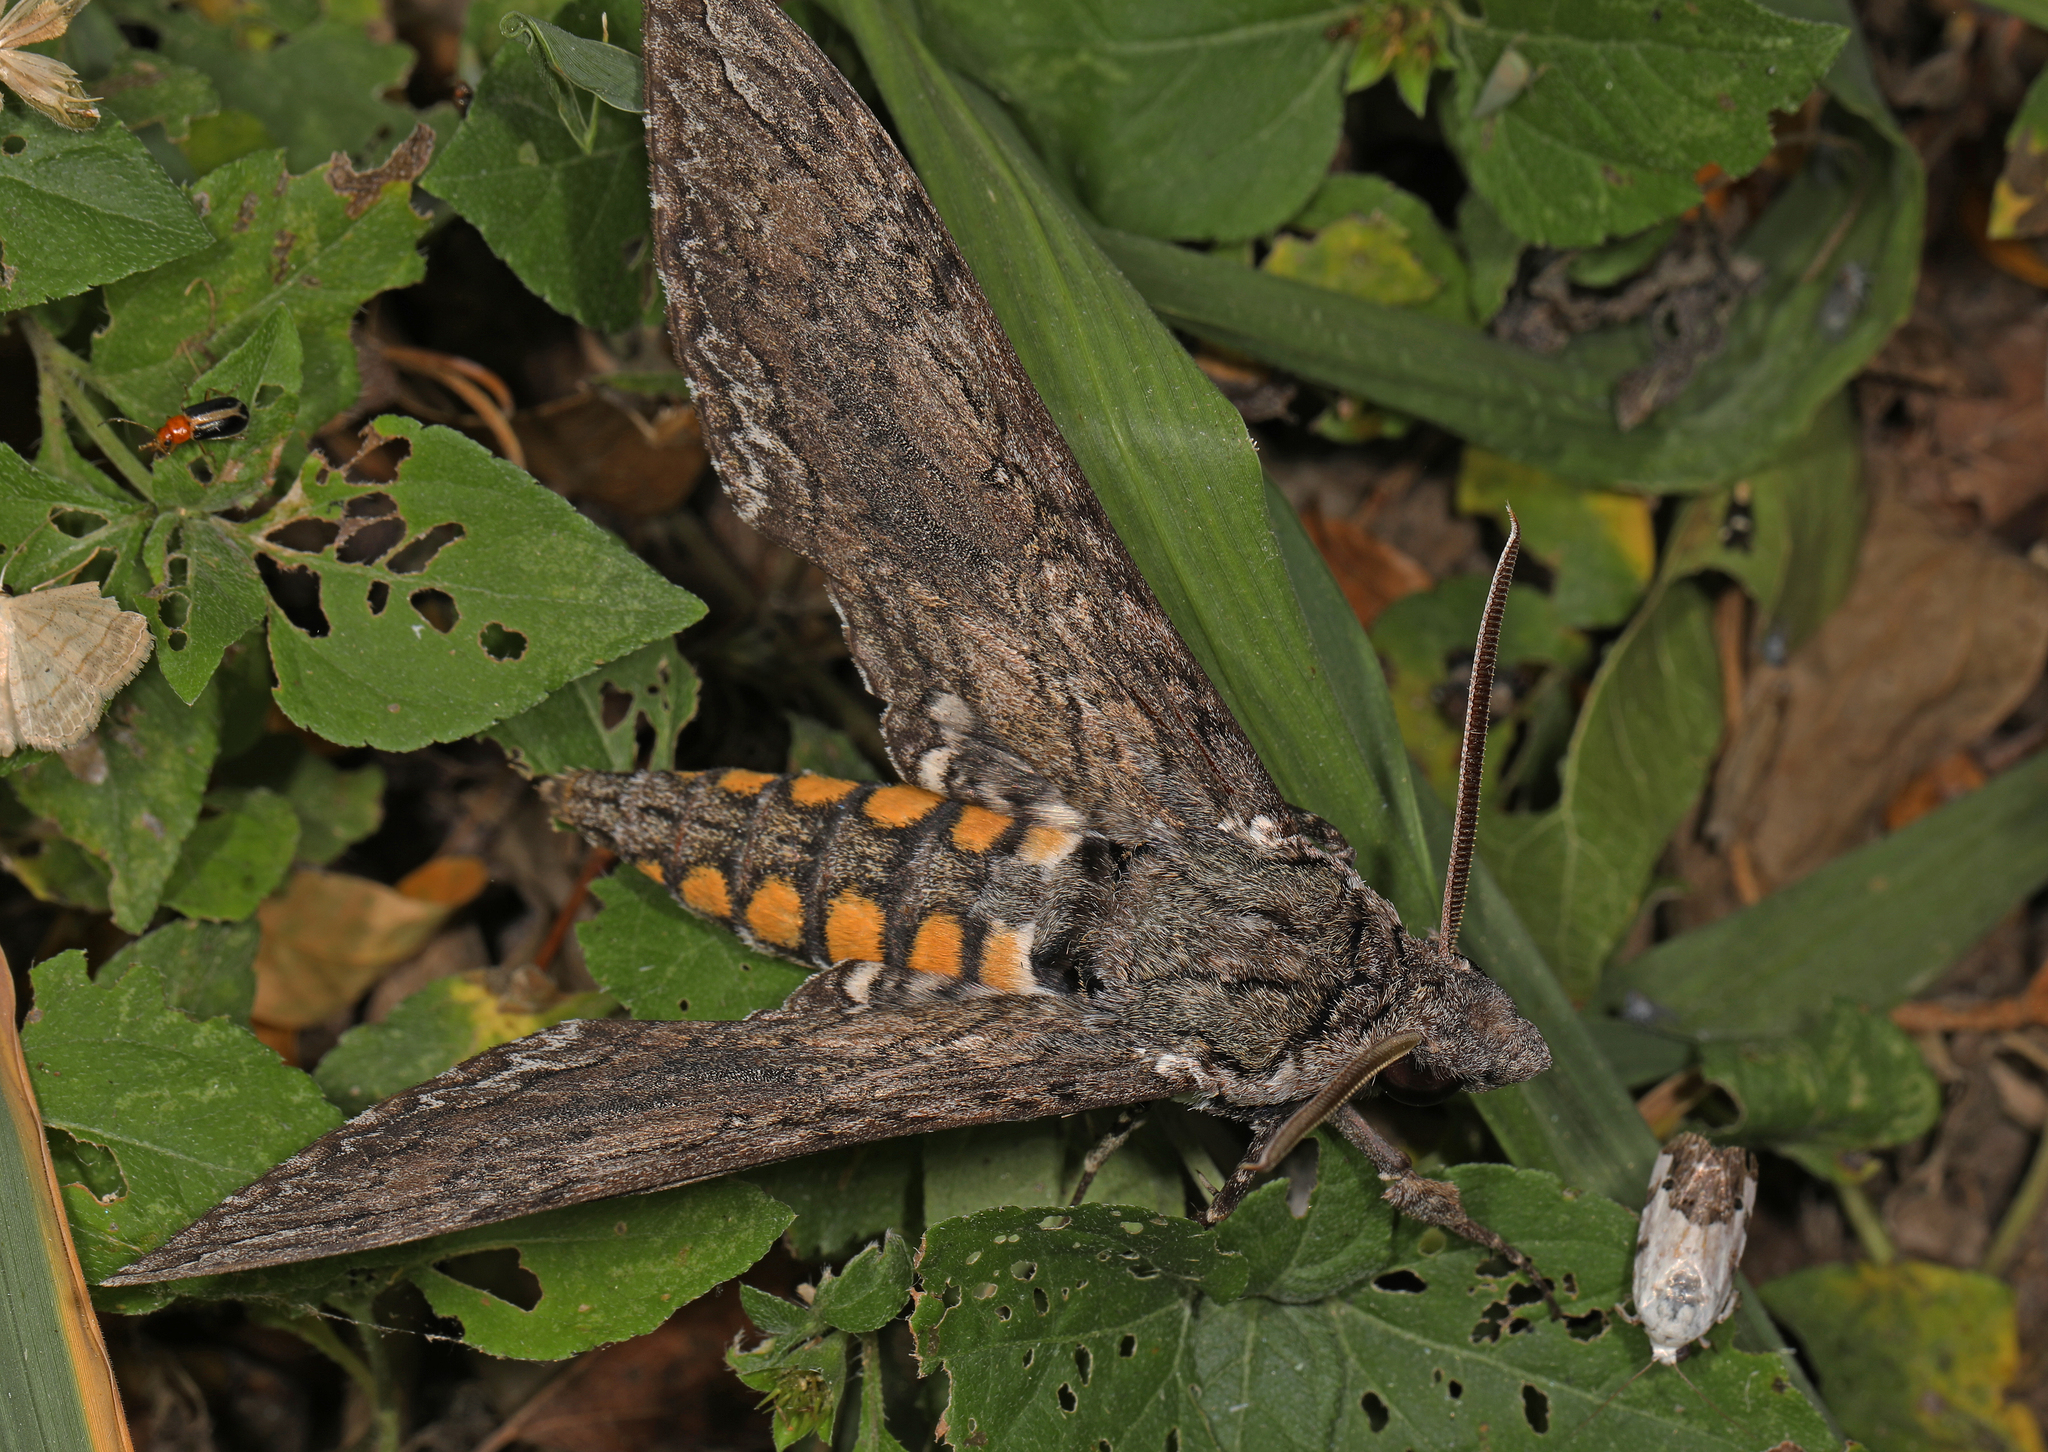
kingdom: Animalia
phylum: Arthropoda
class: Insecta
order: Lepidoptera
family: Sphingidae
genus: Manduca
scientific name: Manduca sexta
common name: Carolina sphinx
